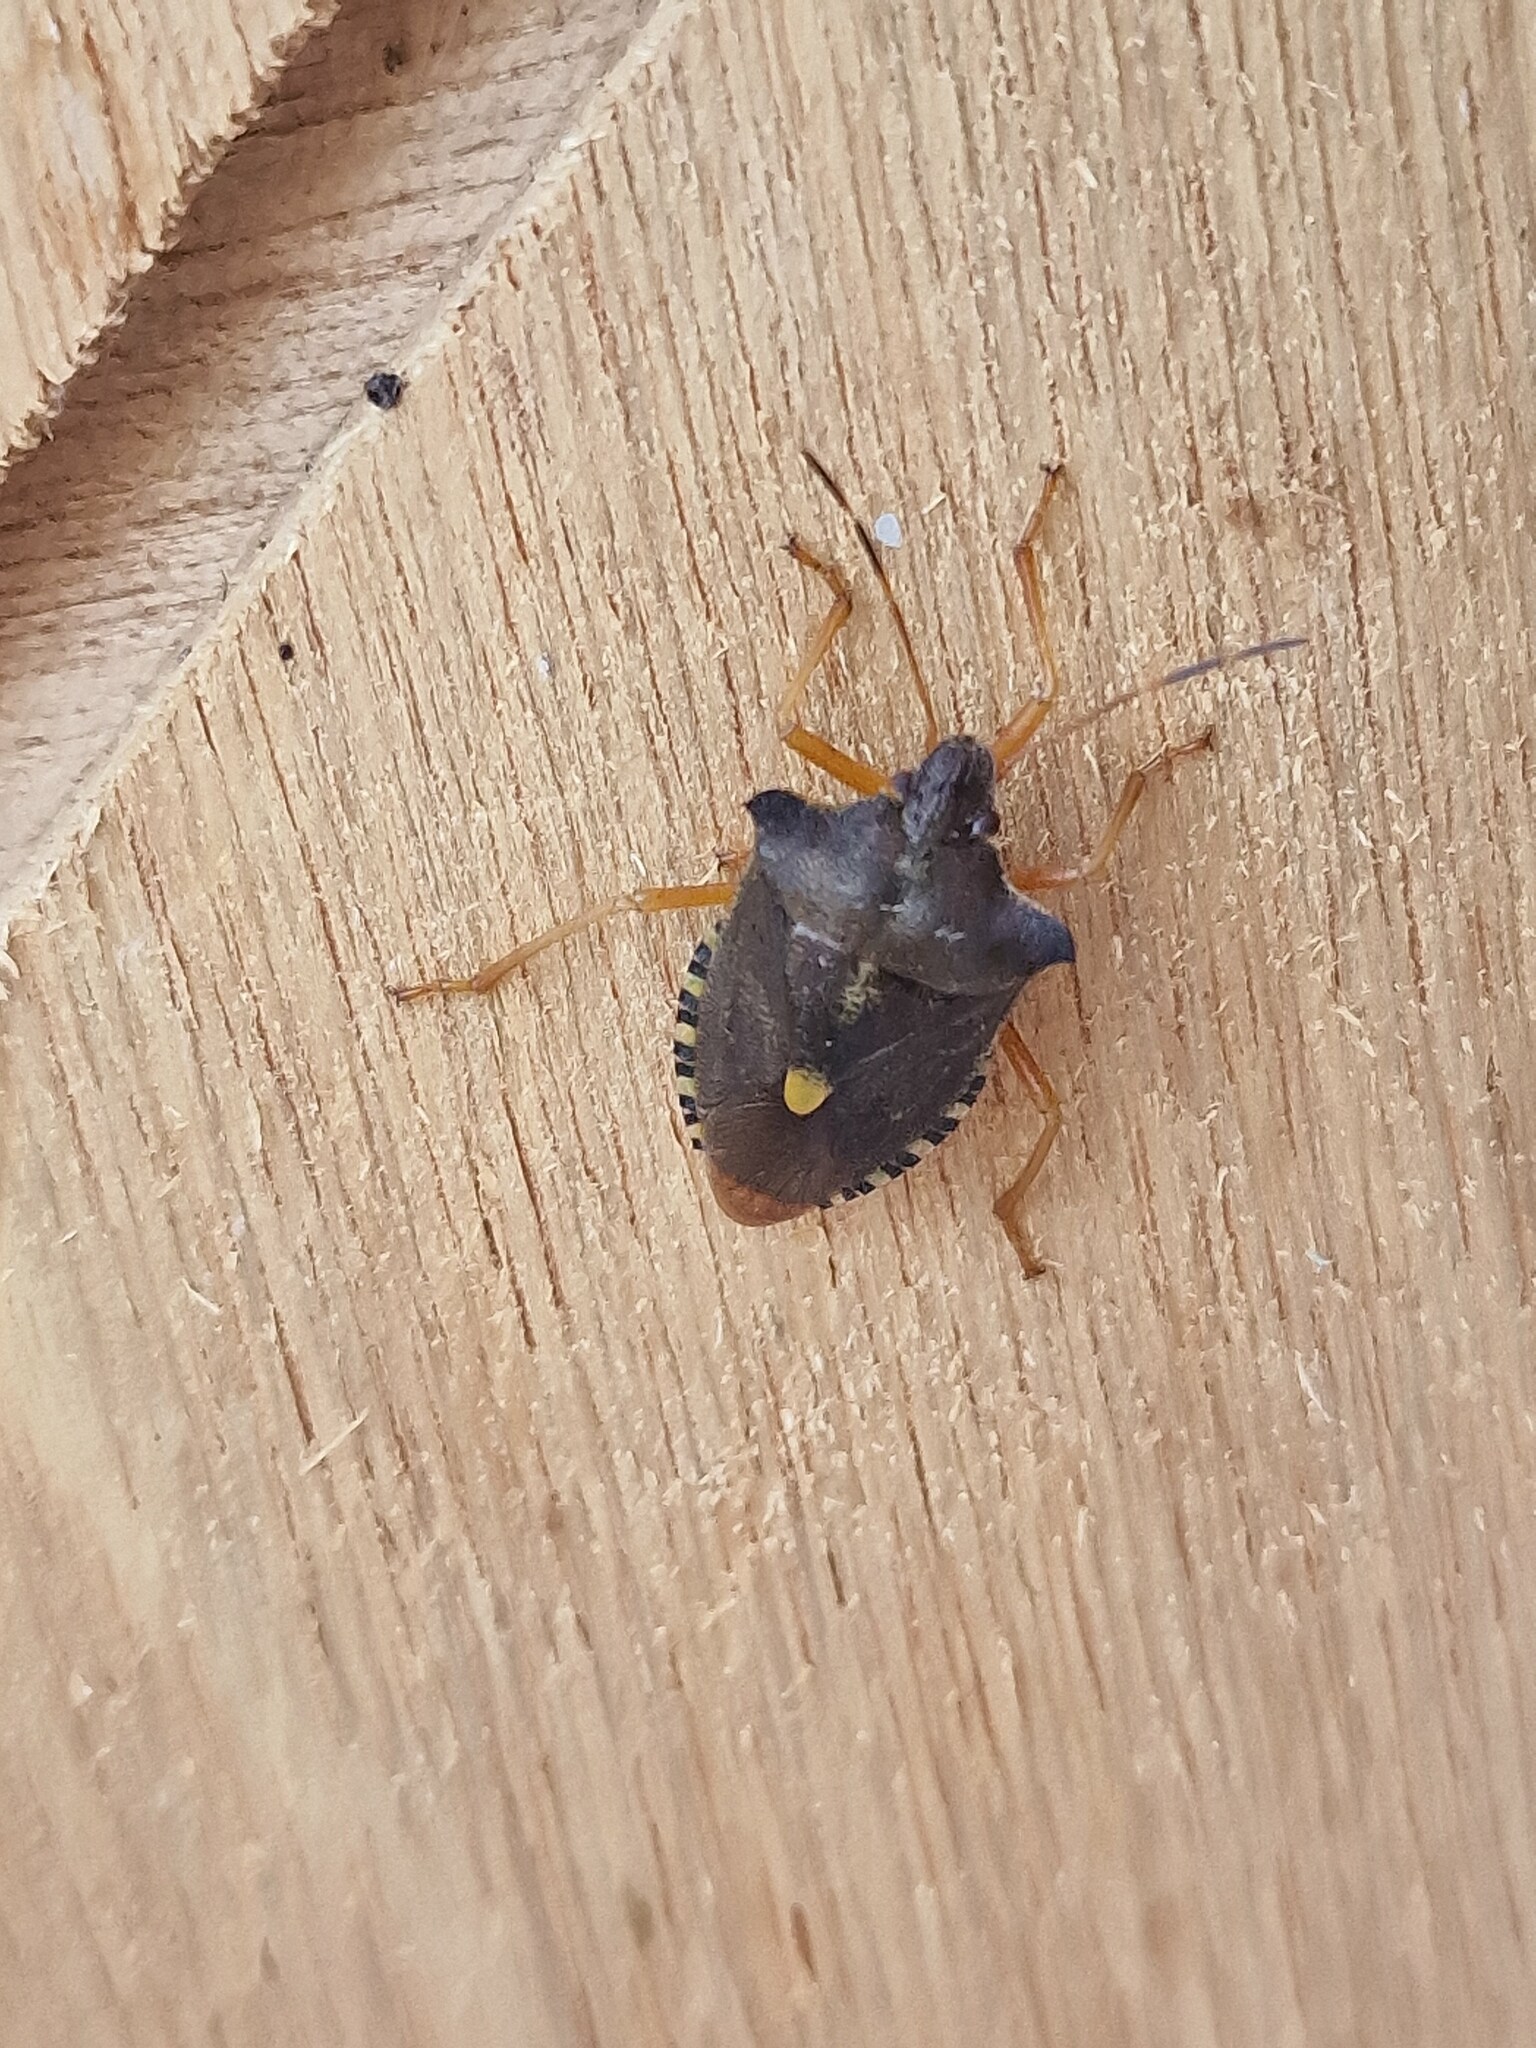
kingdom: Animalia
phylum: Arthropoda
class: Insecta
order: Hemiptera
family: Pentatomidae
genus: Pentatoma
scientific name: Pentatoma rufipes
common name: Forest bug
